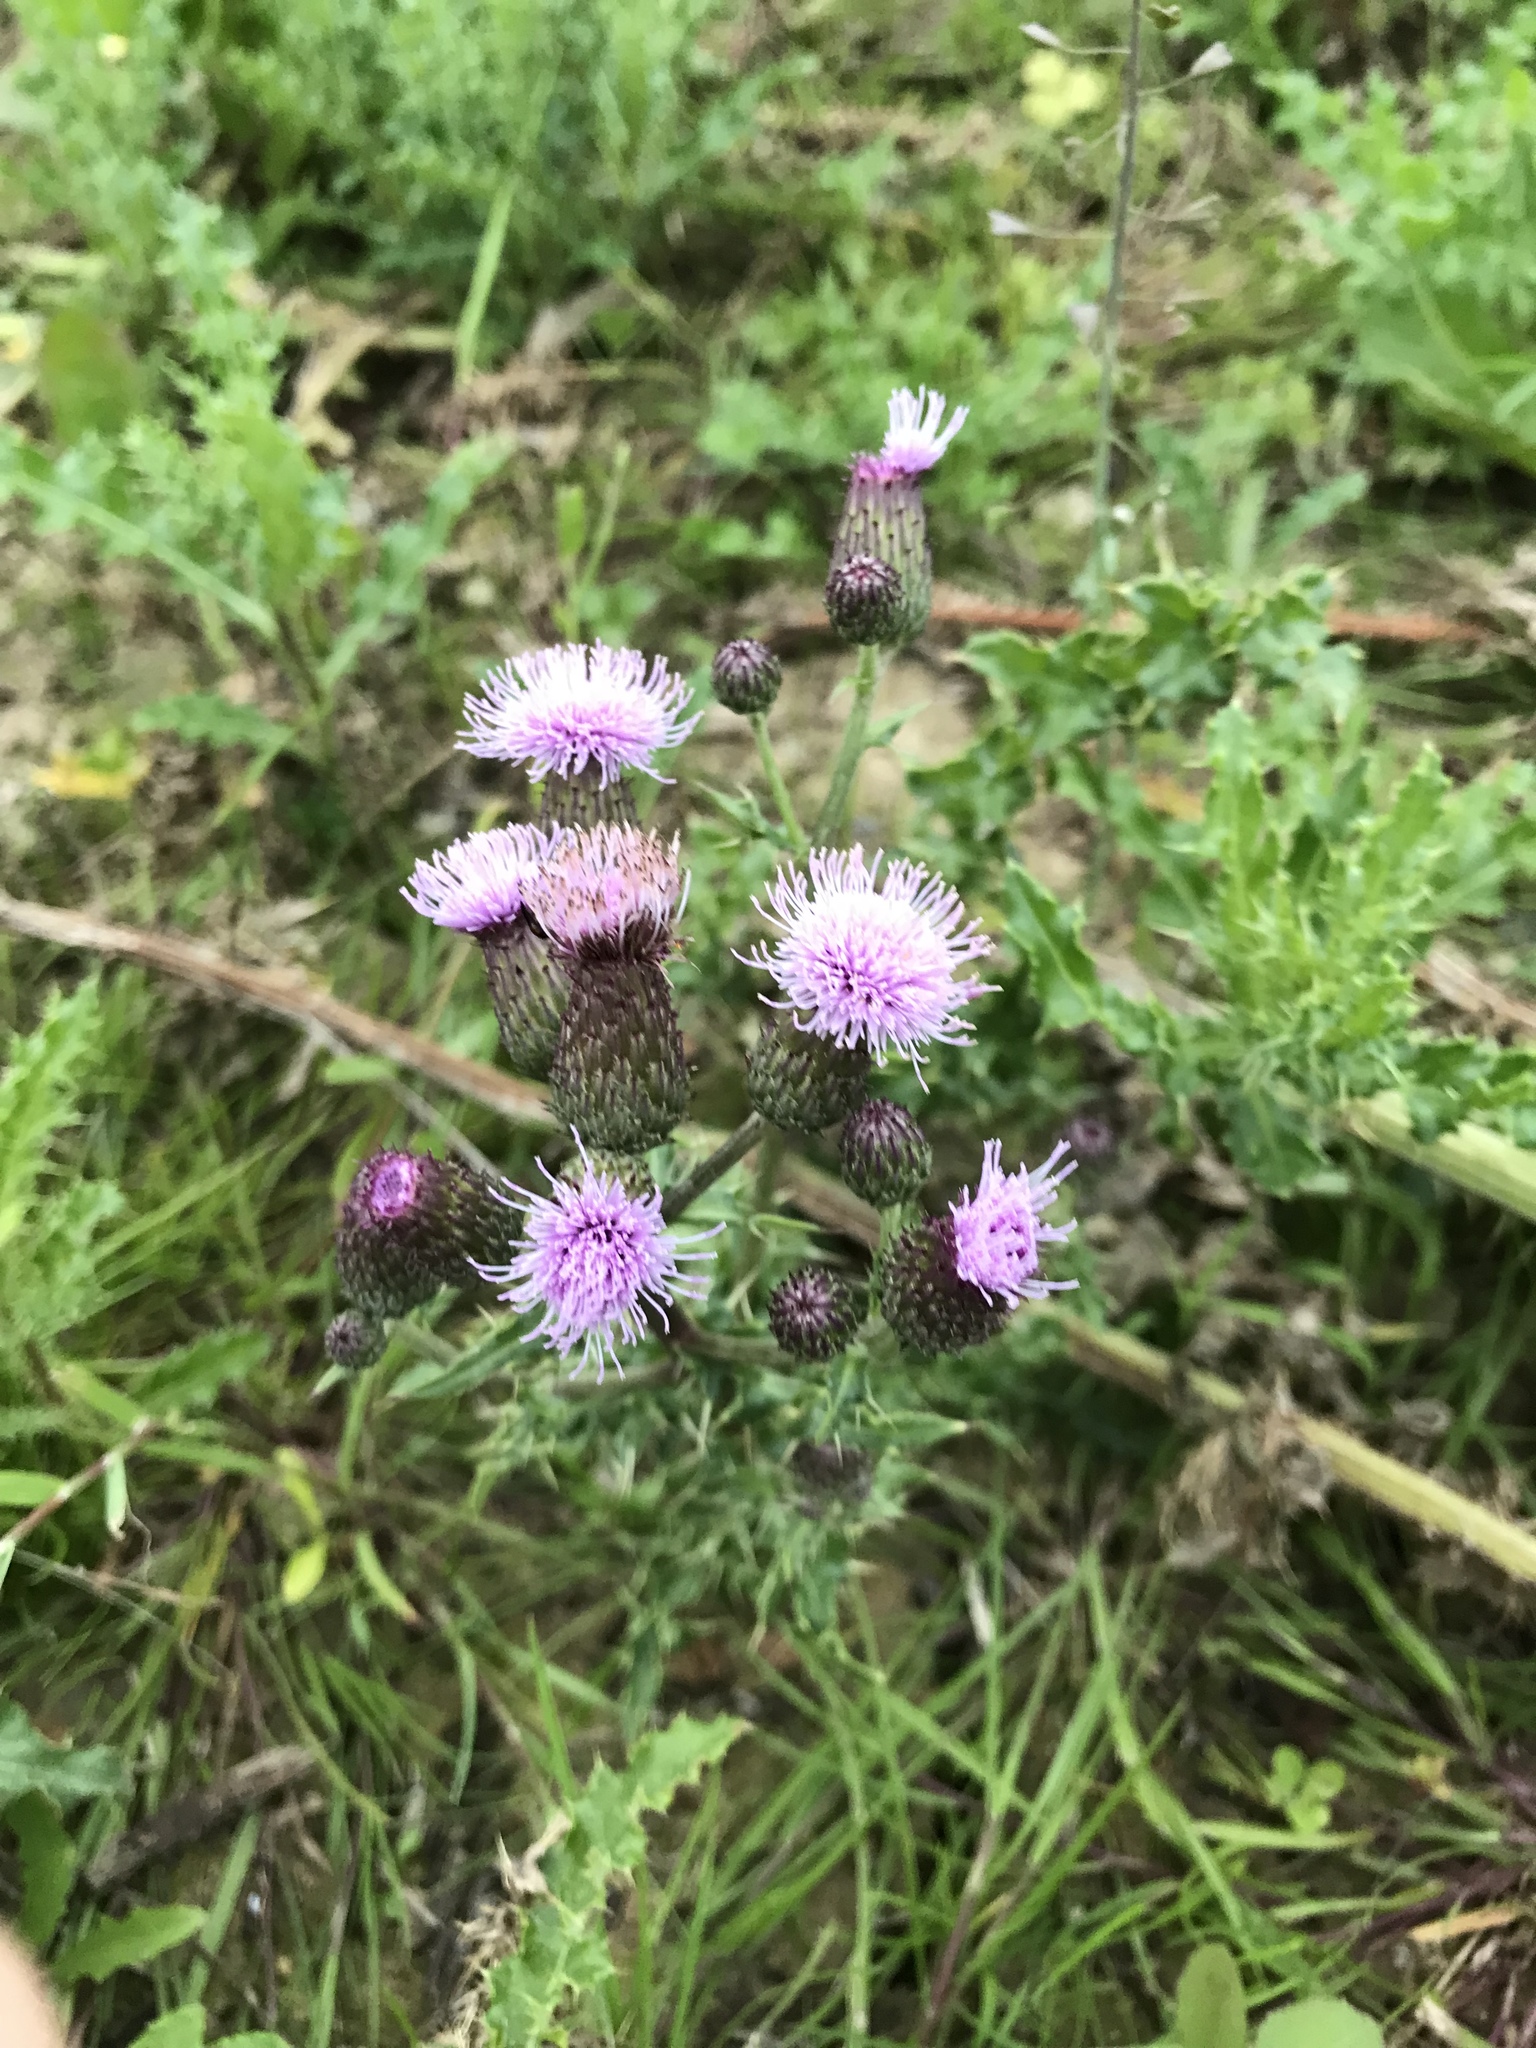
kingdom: Plantae
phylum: Tracheophyta
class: Magnoliopsida
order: Asterales
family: Asteraceae
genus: Cirsium
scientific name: Cirsium arvense
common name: Creeping thistle
